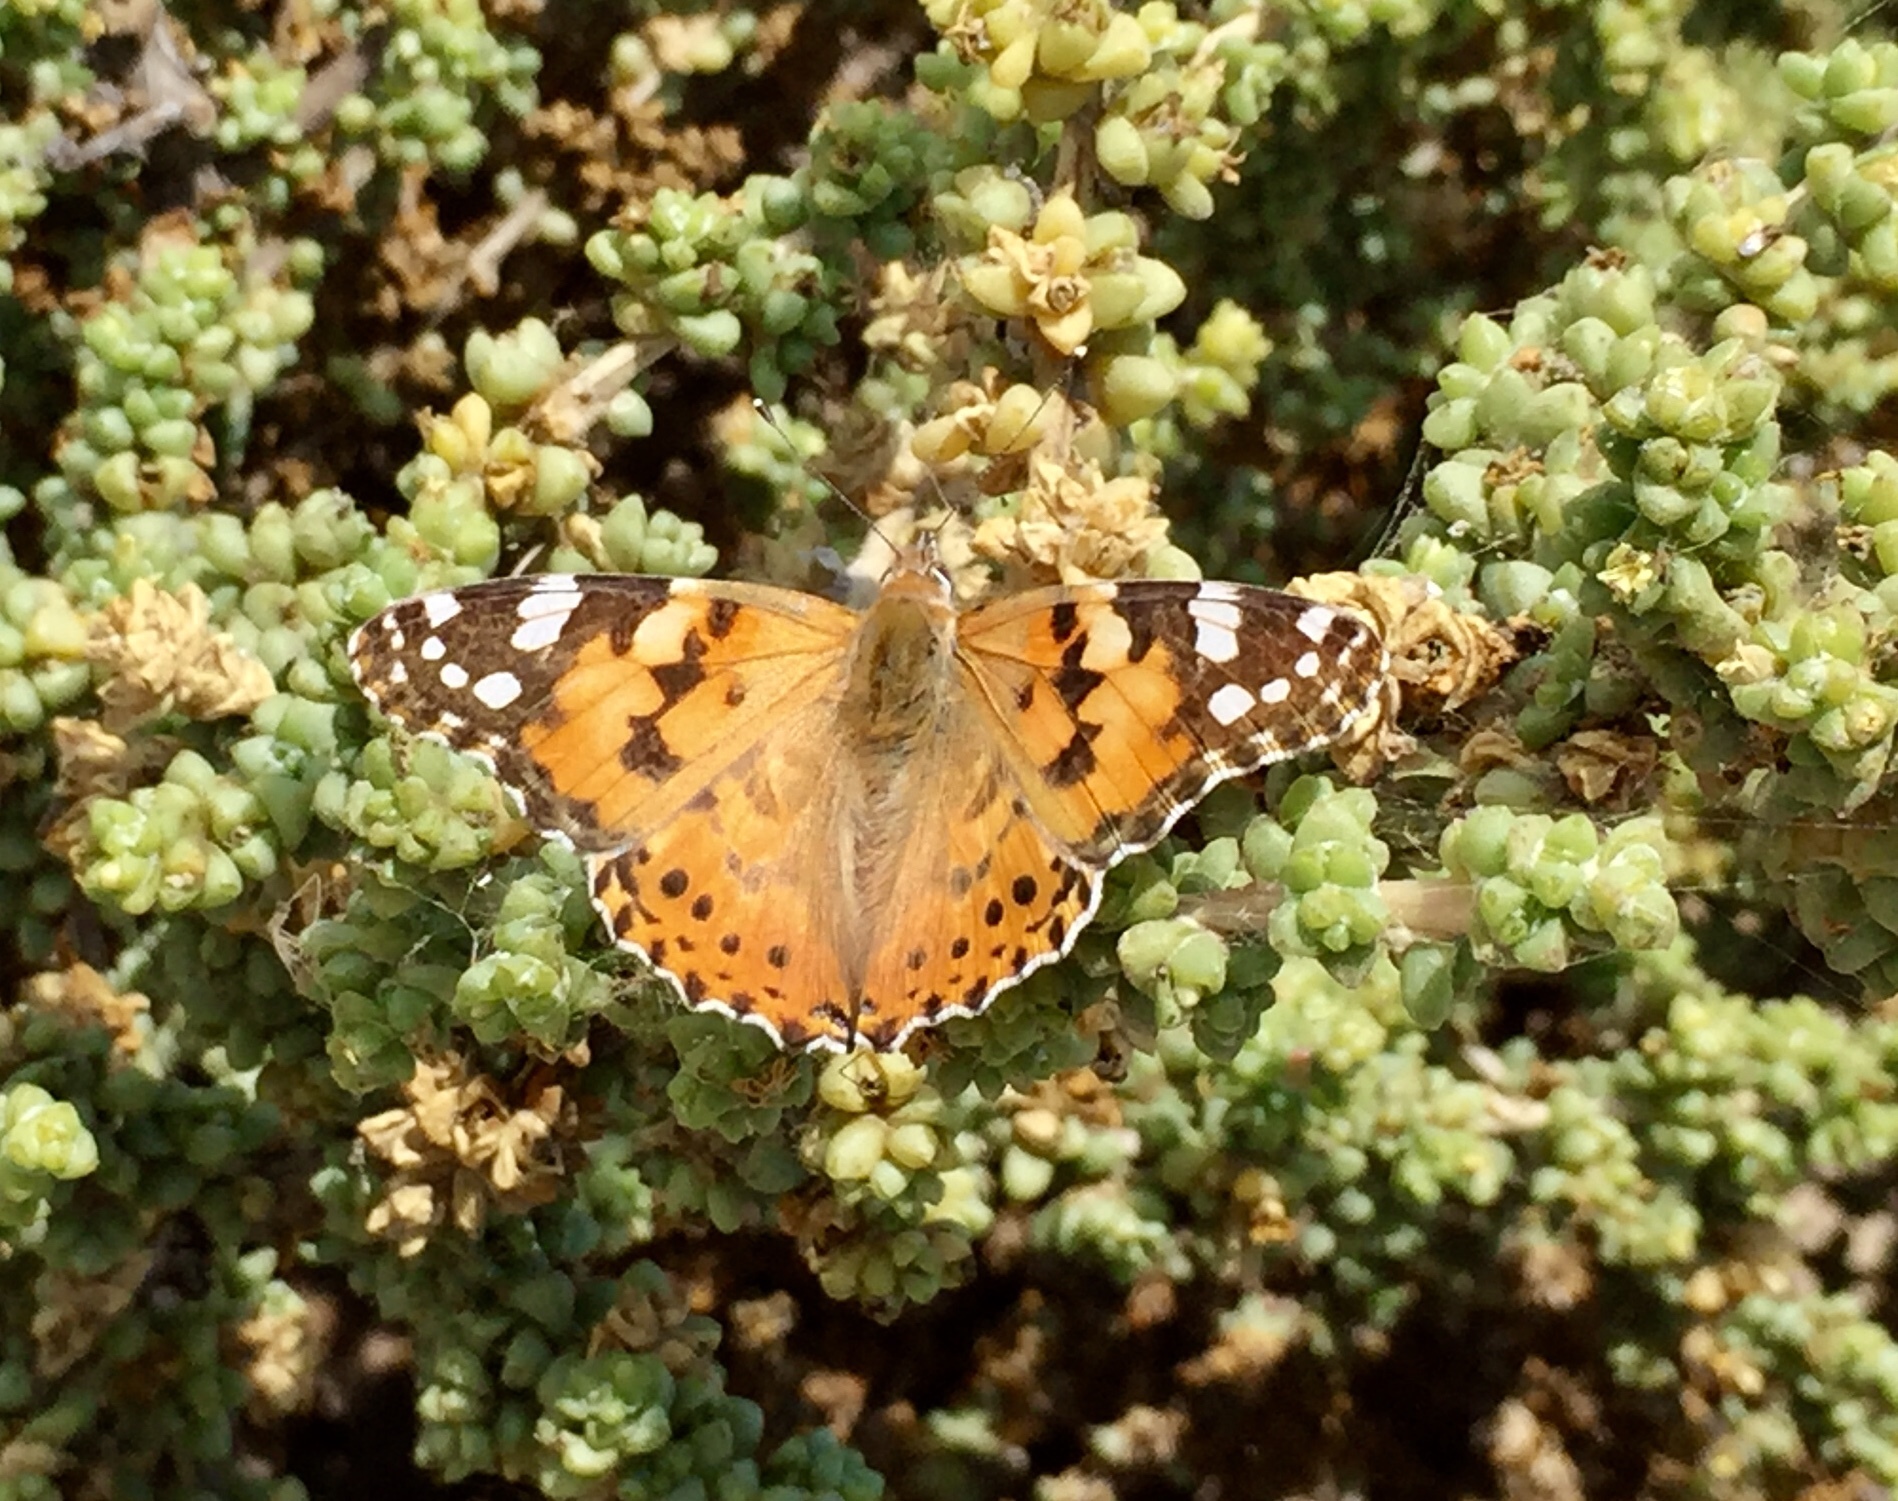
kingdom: Animalia
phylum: Arthropoda
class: Insecta
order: Lepidoptera
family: Nymphalidae
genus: Vanessa
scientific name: Vanessa cardui
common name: Painted lady
